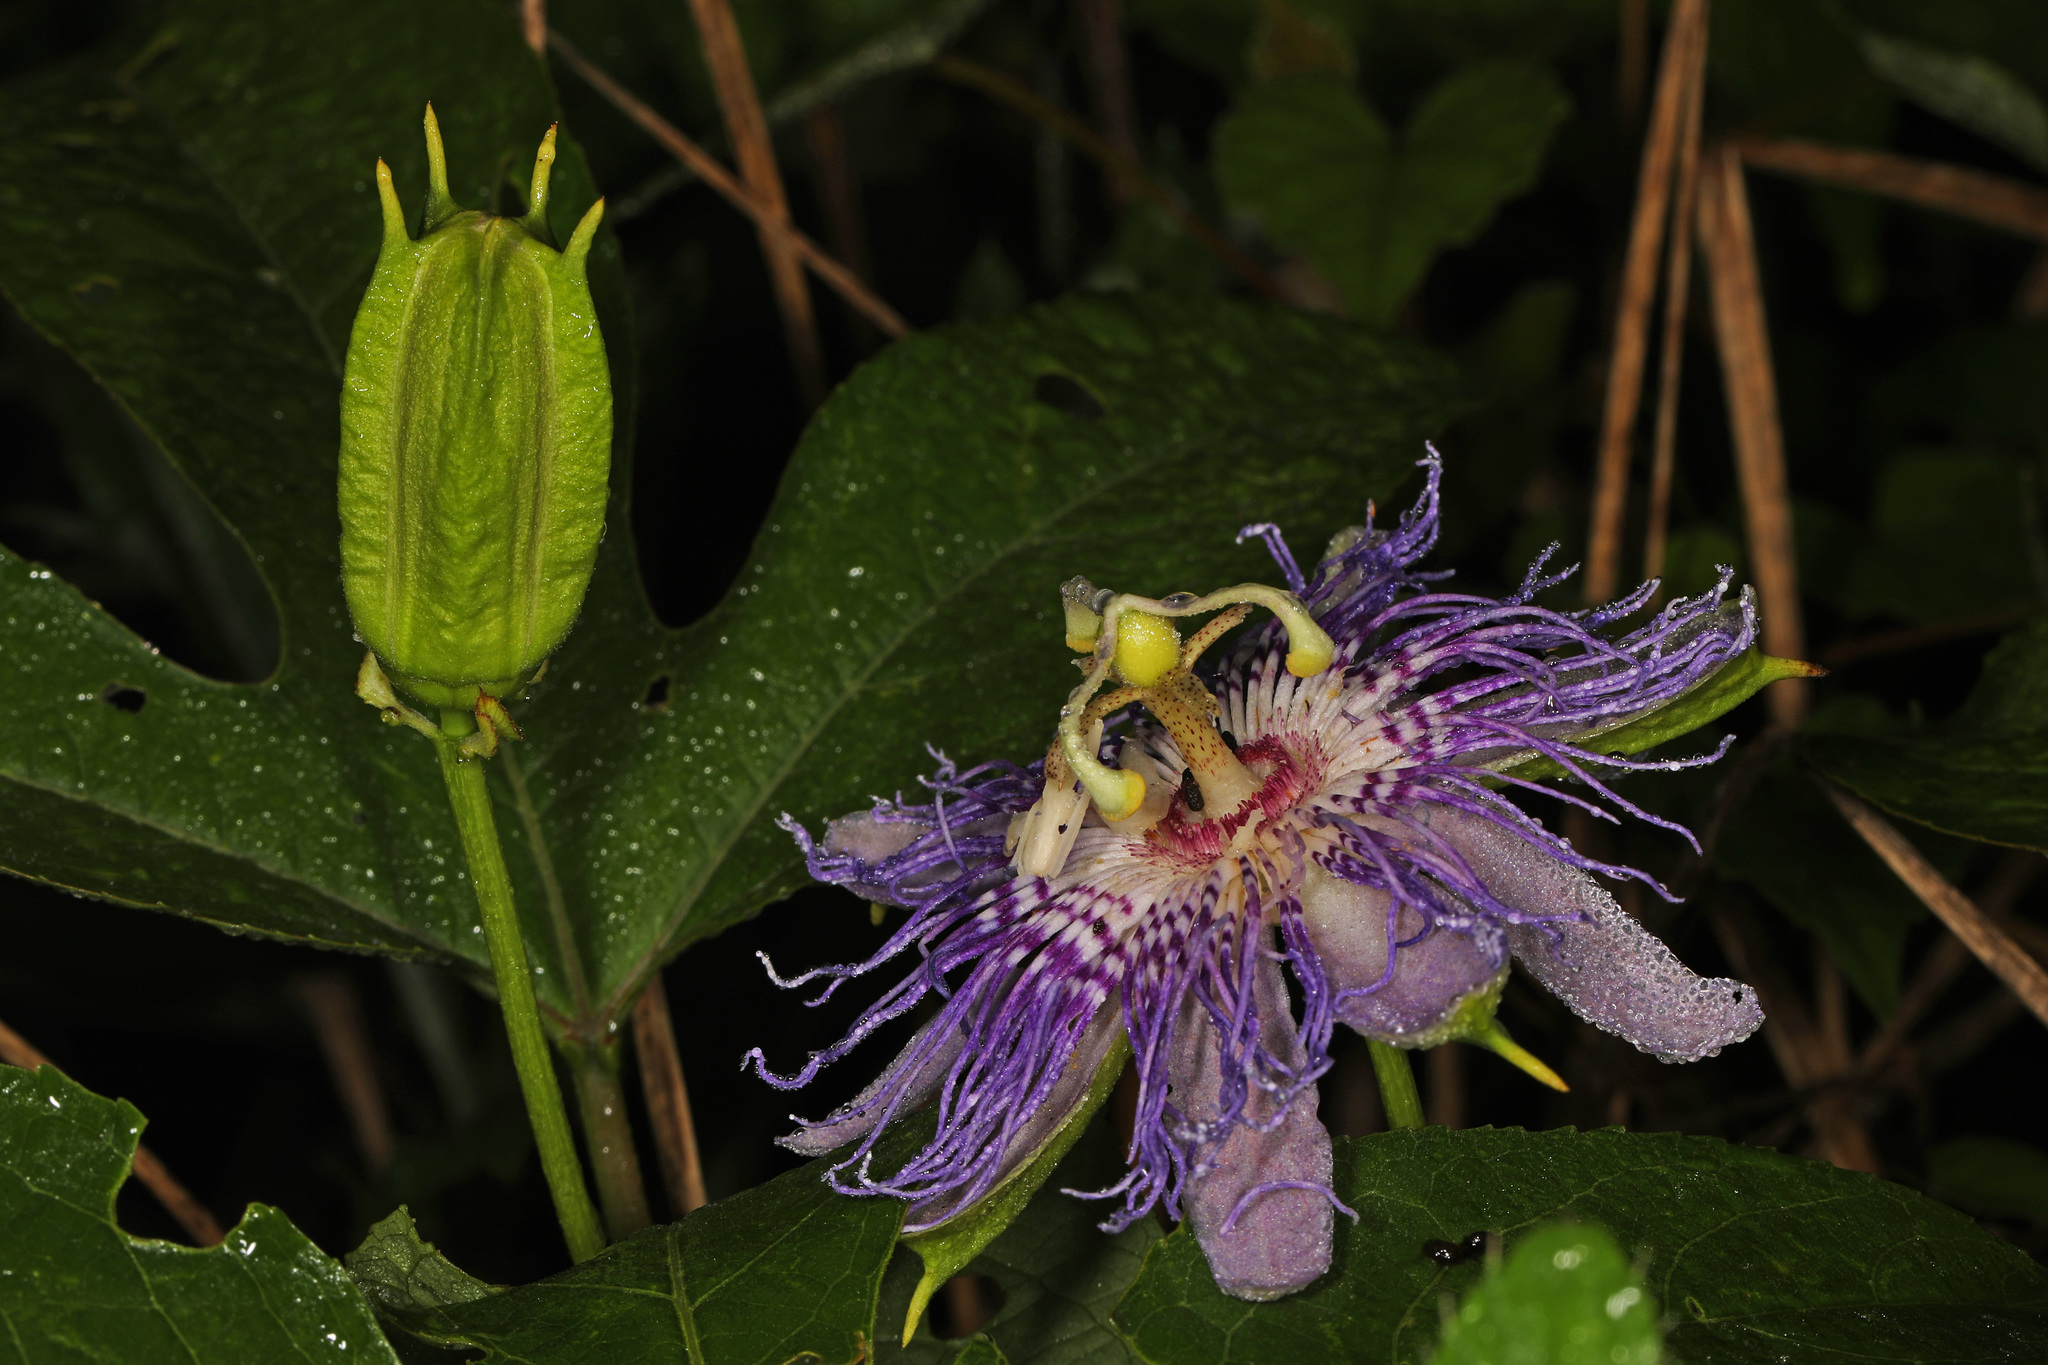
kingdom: Plantae
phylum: Tracheophyta
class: Magnoliopsida
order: Malpighiales
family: Passifloraceae
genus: Passiflora
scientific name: Passiflora incarnata
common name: Apricot-vine
